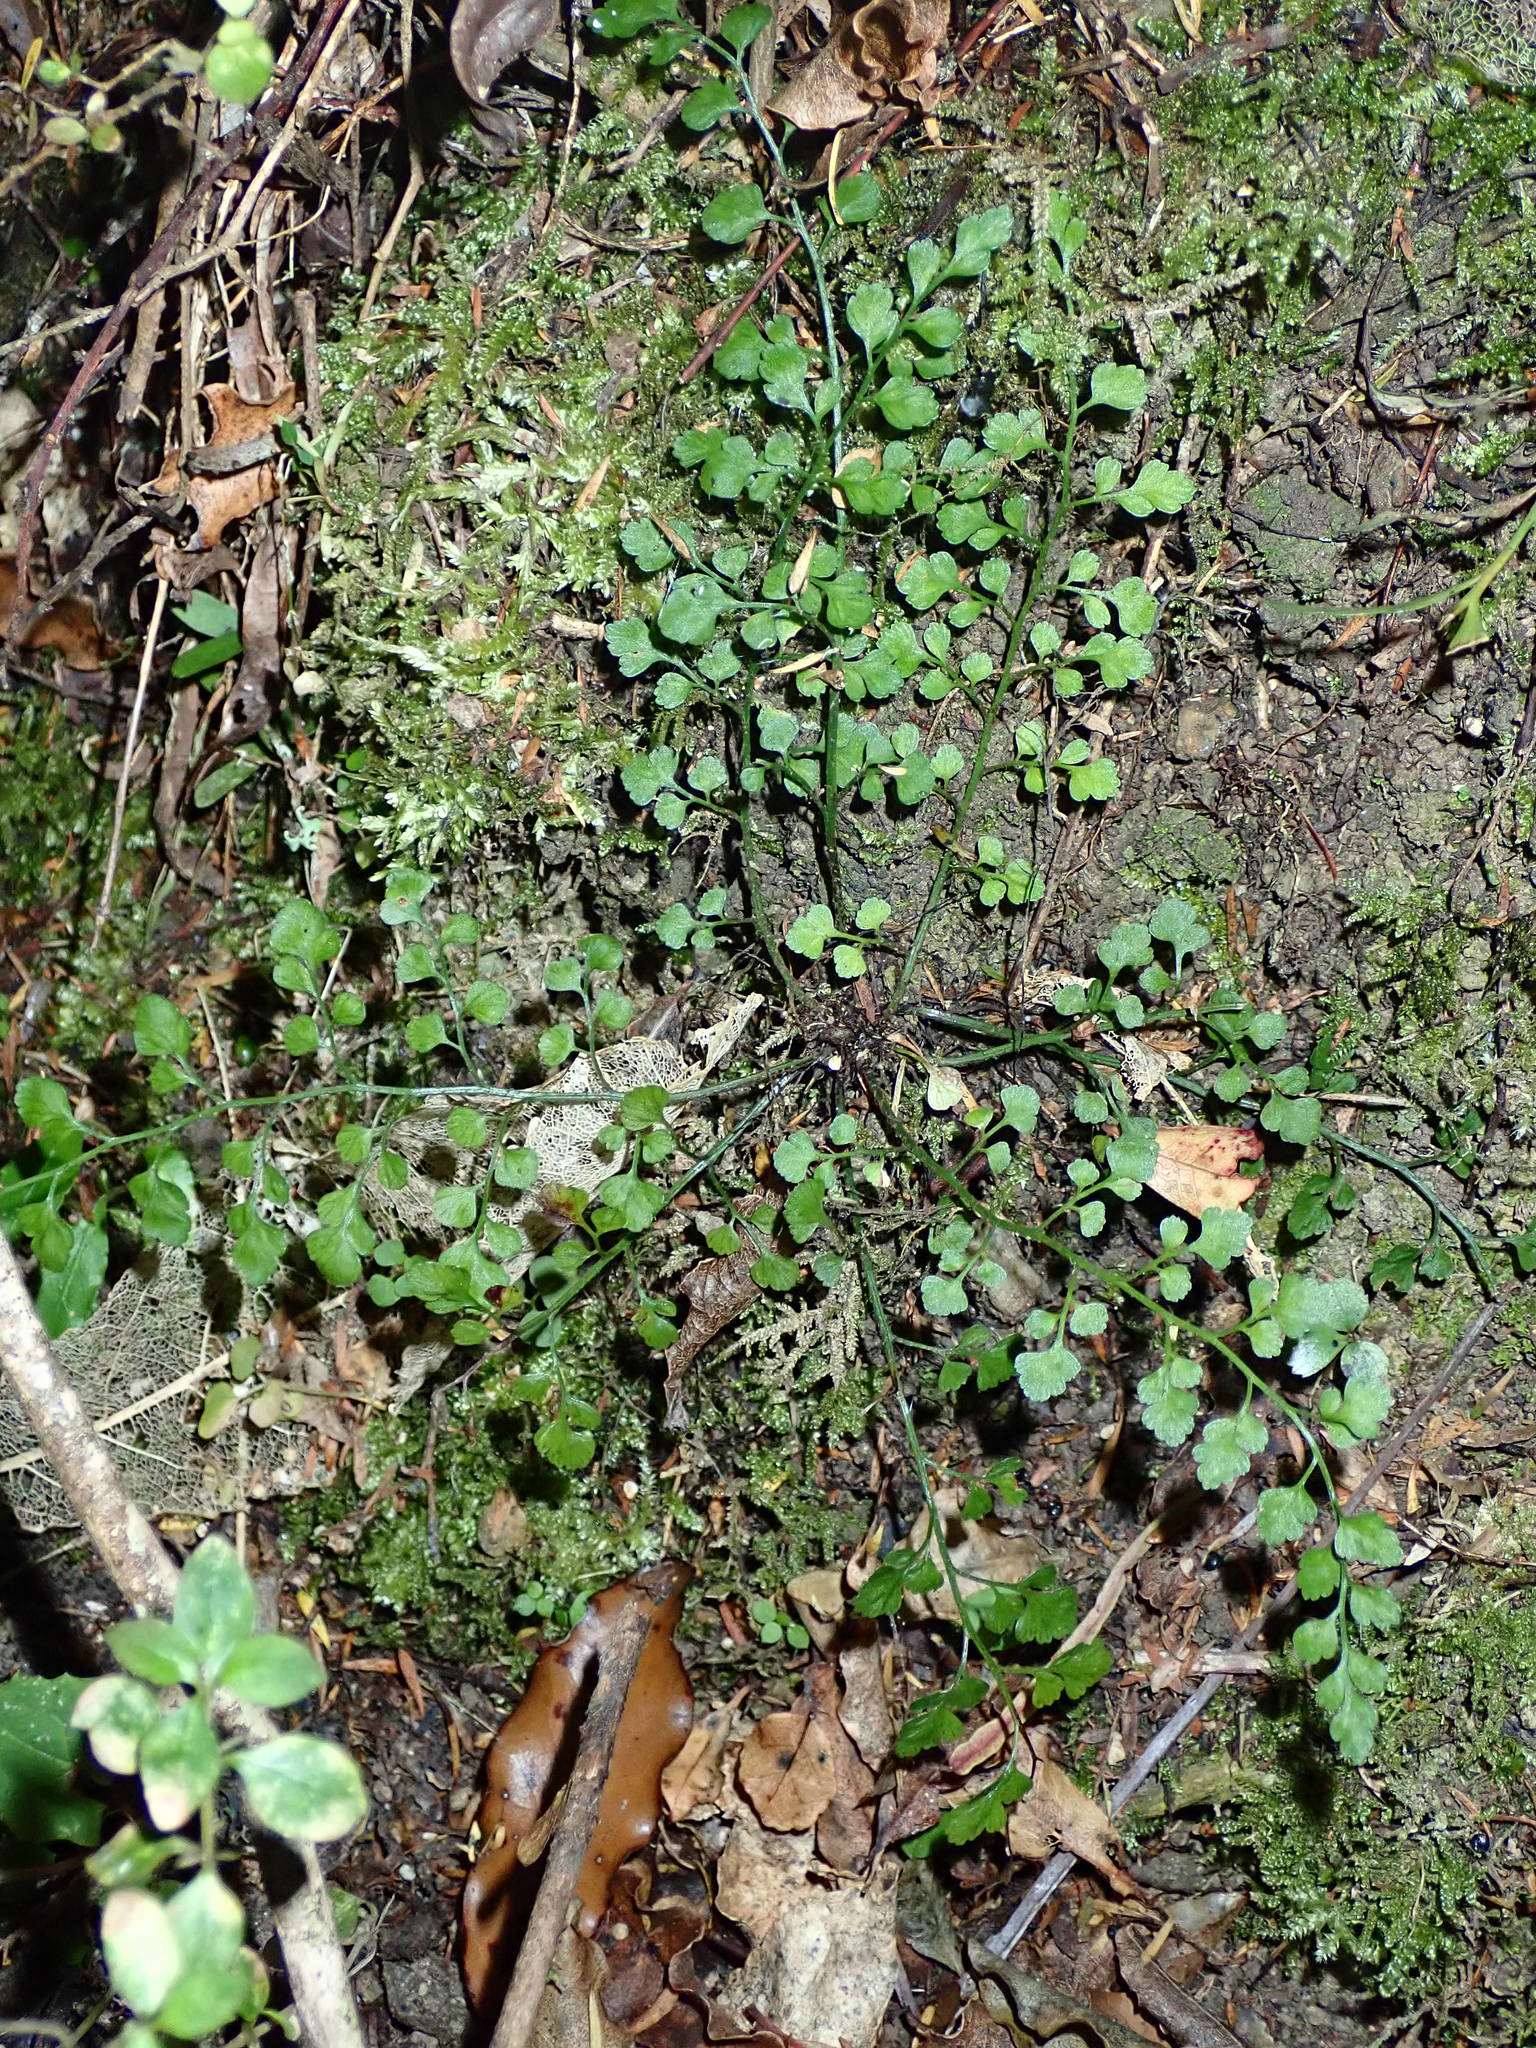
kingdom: Plantae
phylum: Tracheophyta
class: Polypodiopsida
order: Polypodiales
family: Aspleniaceae
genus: Asplenium
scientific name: Asplenium hookerianum
